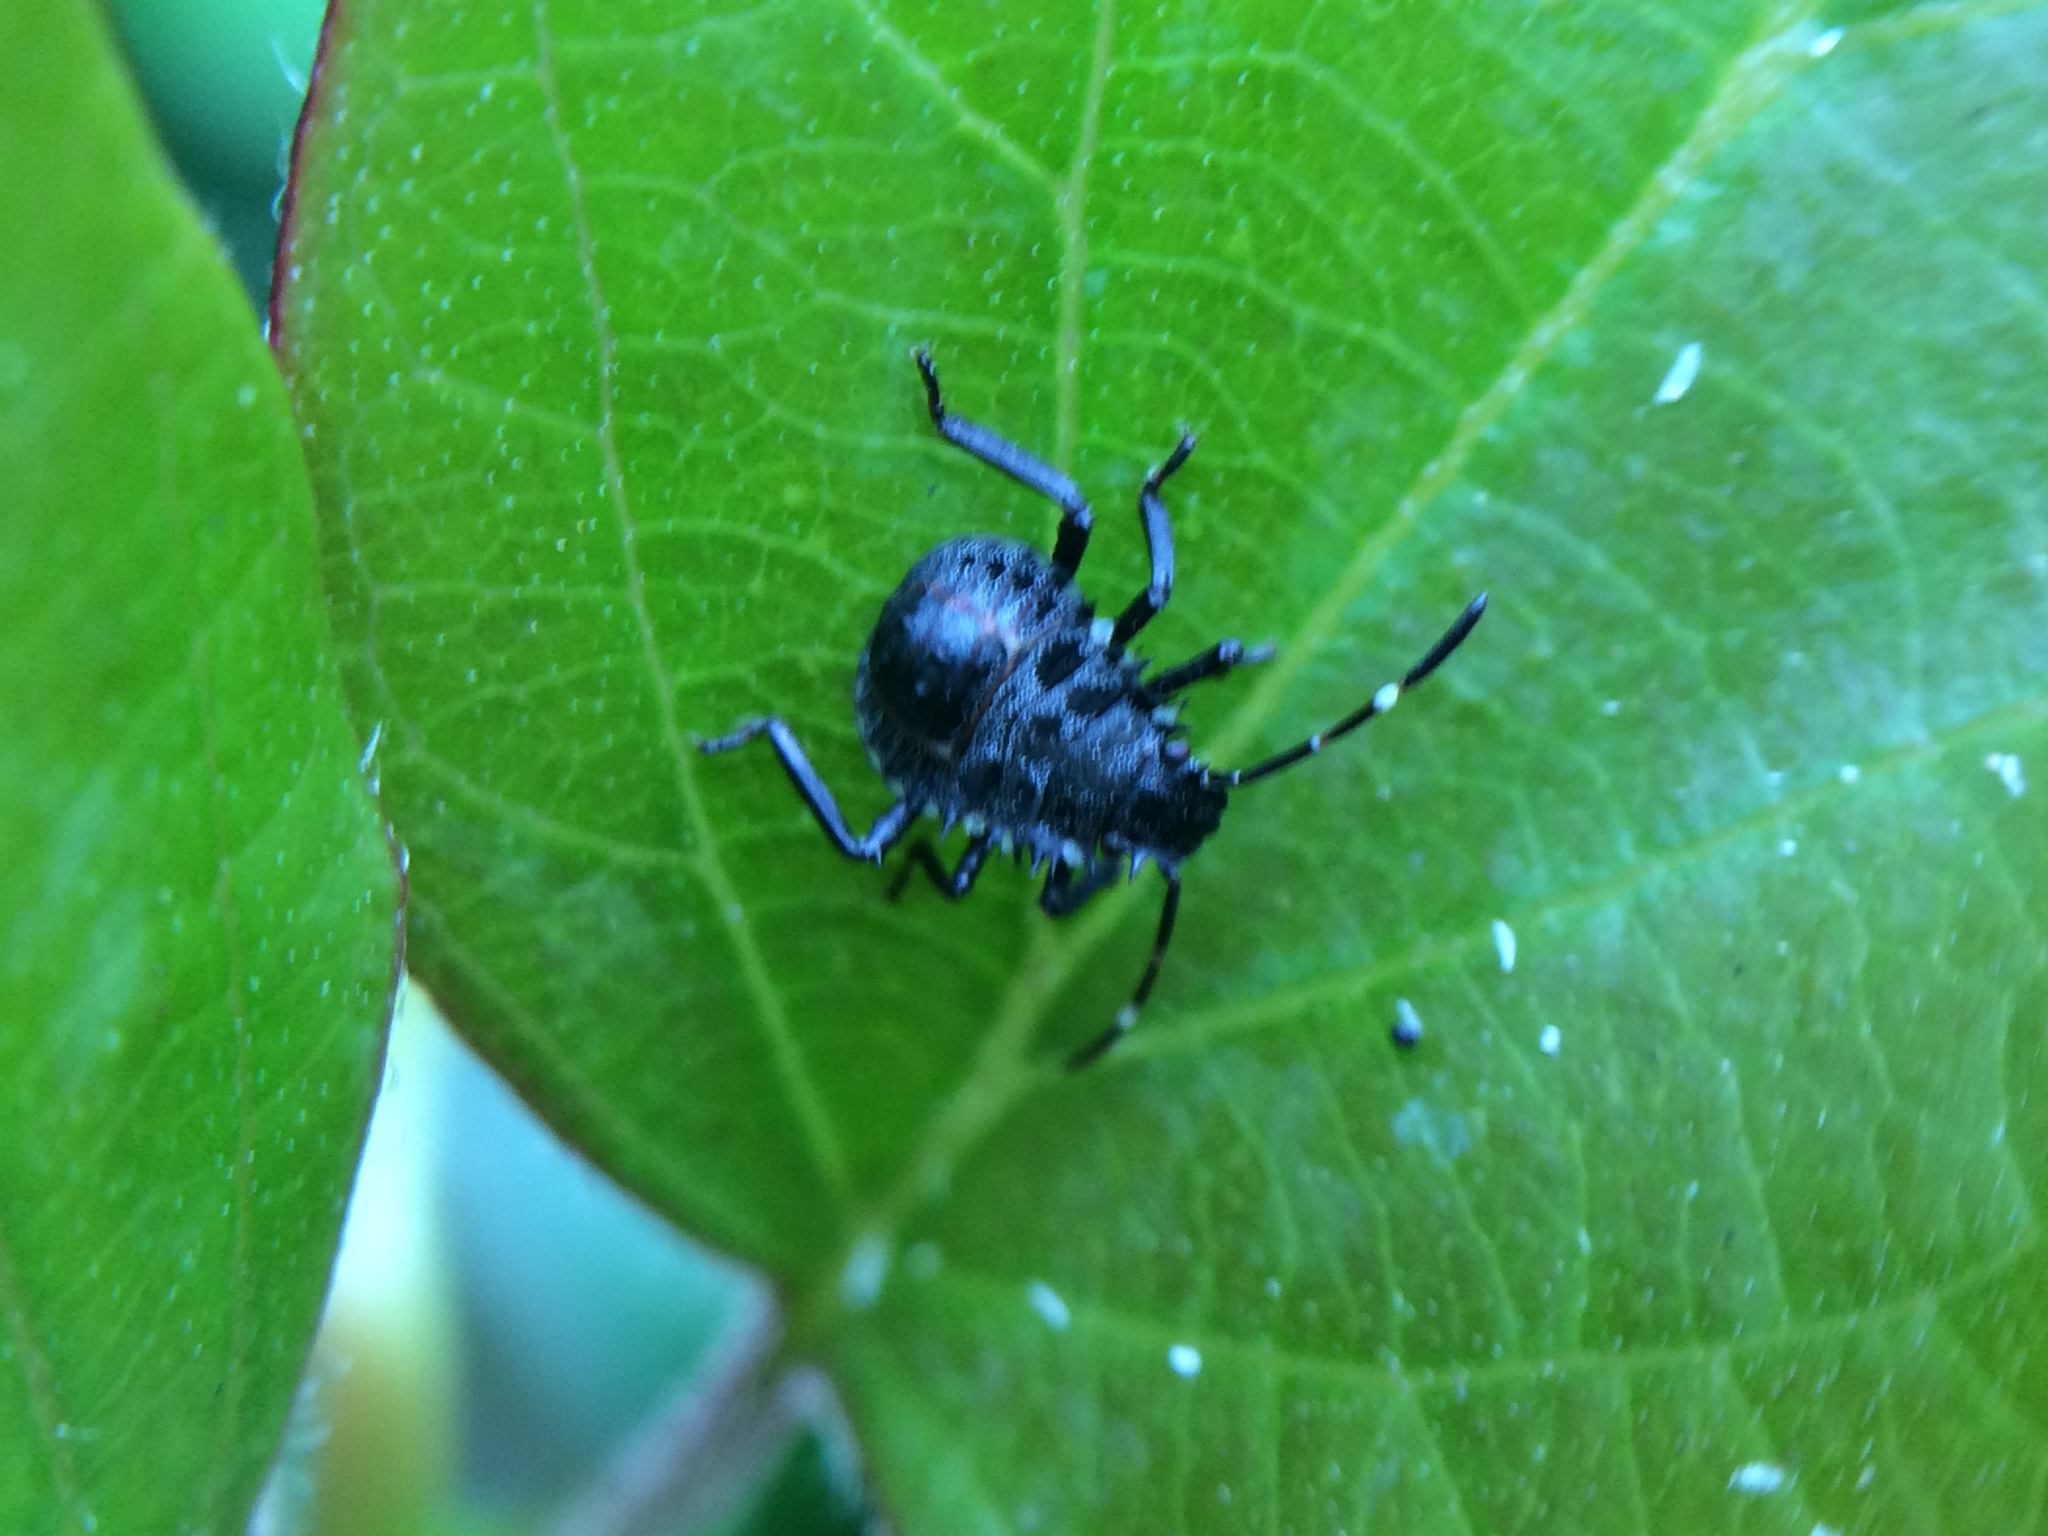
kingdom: Animalia
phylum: Arthropoda
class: Insecta
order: Hemiptera
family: Pentatomidae
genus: Halyomorpha
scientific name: Halyomorpha halys
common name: Brown marmorated stink bug
